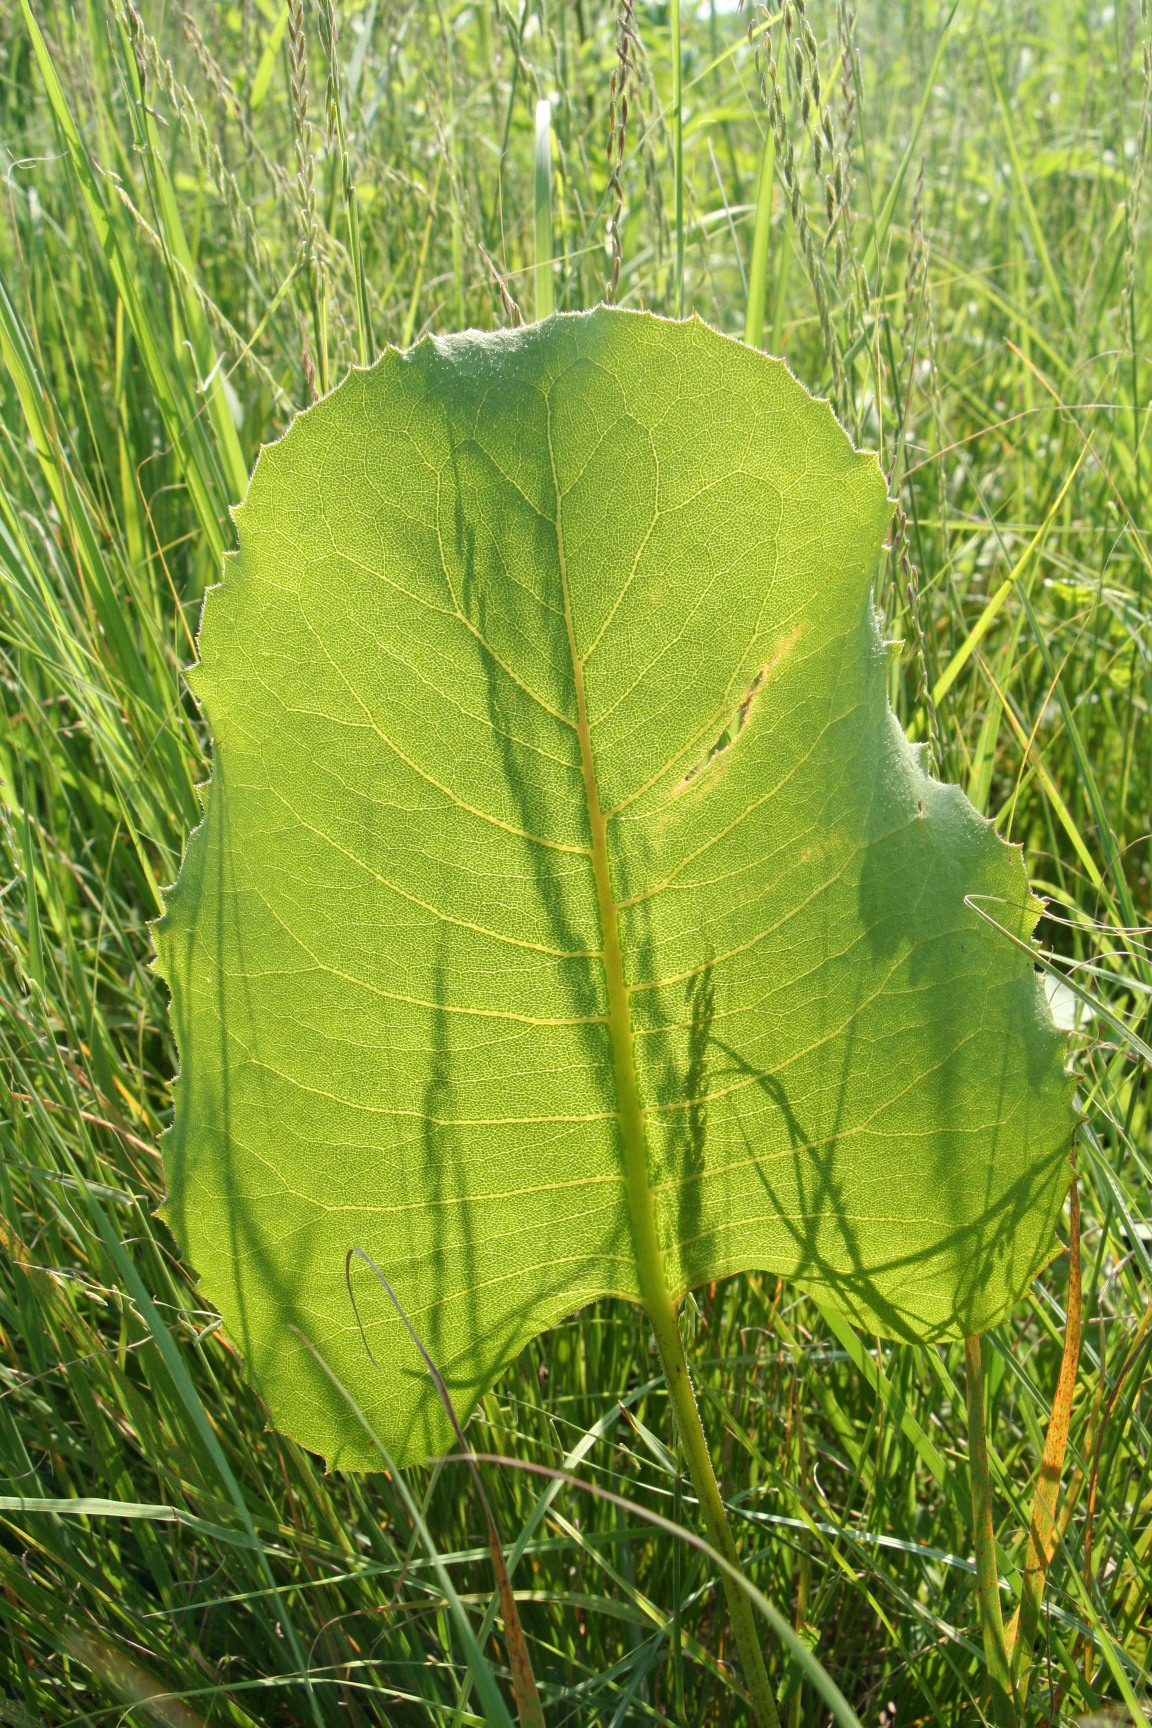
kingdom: Plantae
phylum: Tracheophyta
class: Magnoliopsida
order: Asterales
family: Asteraceae
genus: Silphium
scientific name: Silphium terebinthinaceum
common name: Basal-leaf rosinweed
